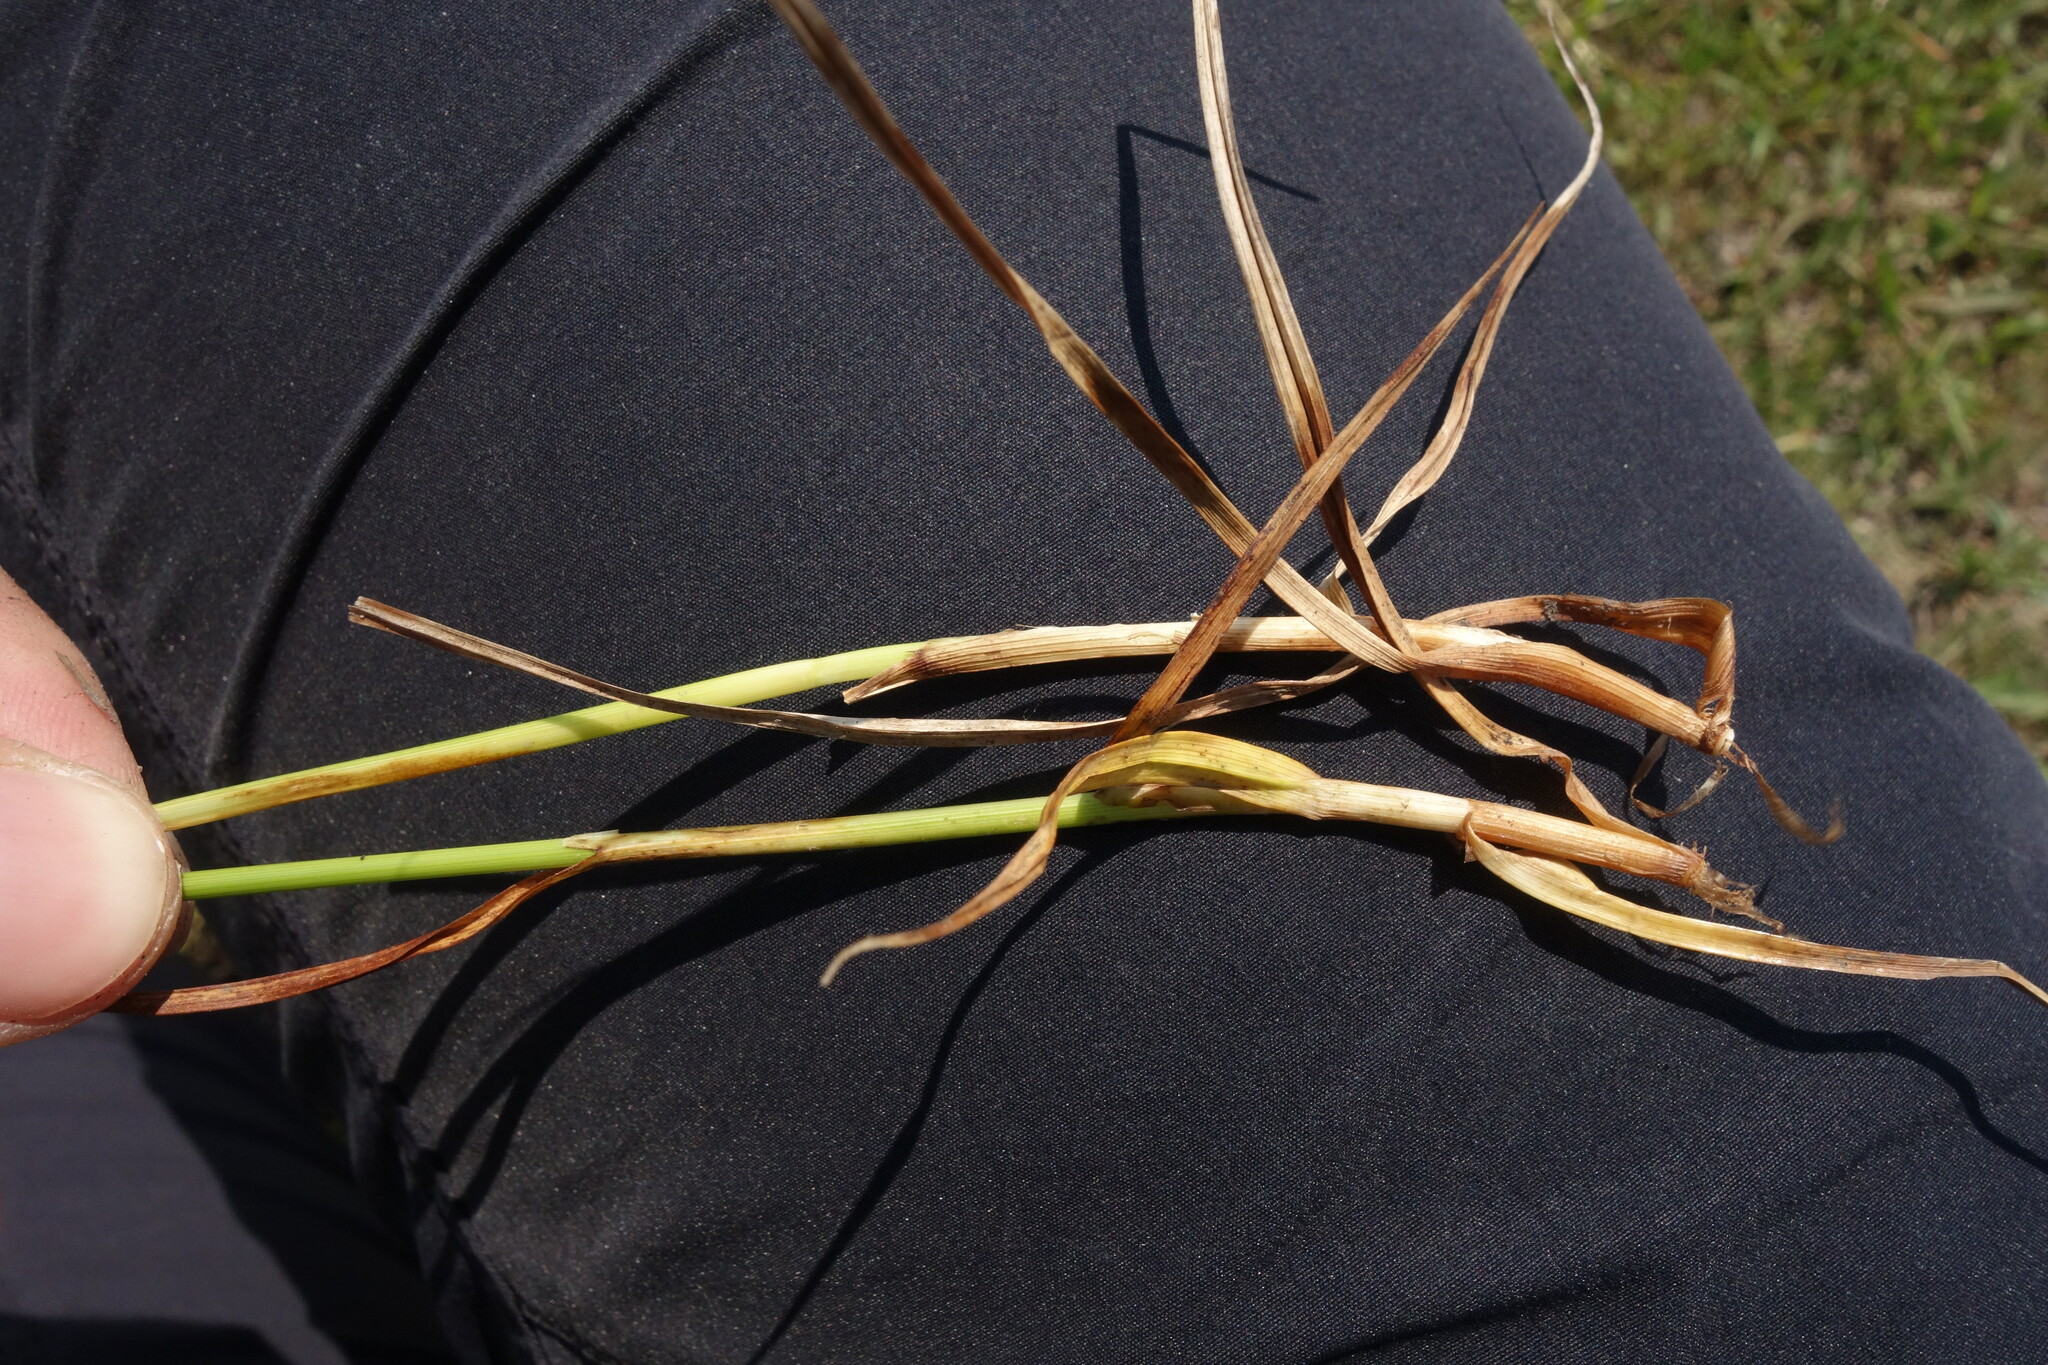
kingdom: Plantae
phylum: Tracheophyta
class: Liliopsida
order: Poales
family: Cyperaceae
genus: Carex
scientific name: Carex distans
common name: Distant sedge
